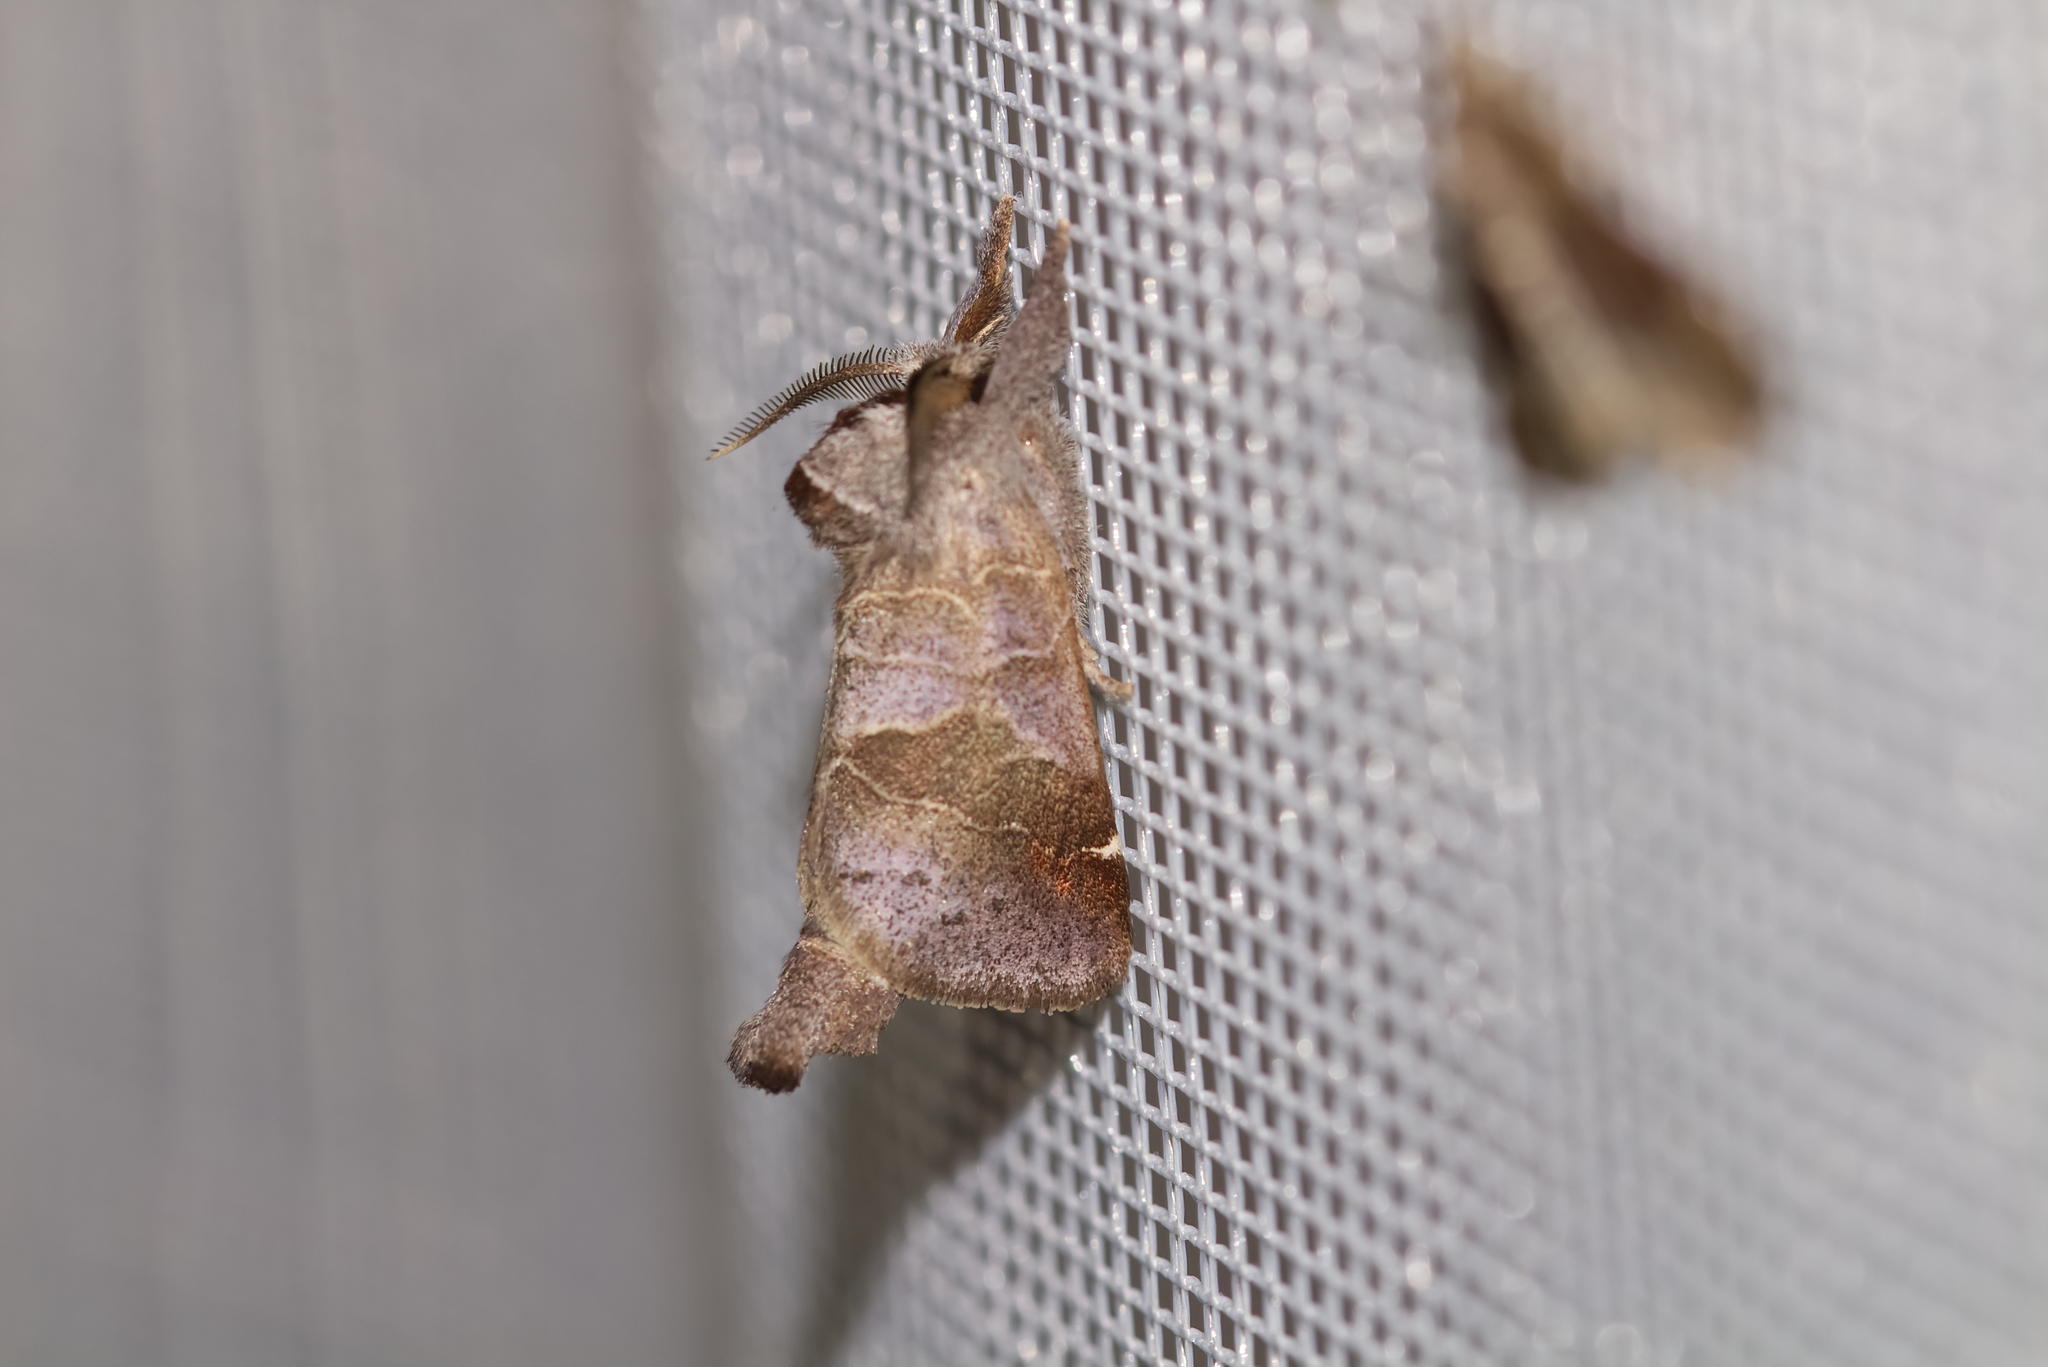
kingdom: Animalia
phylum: Arthropoda
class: Insecta
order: Lepidoptera
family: Notodontidae
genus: Clostera
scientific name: Clostera pigra
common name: Small chocolate-tip
